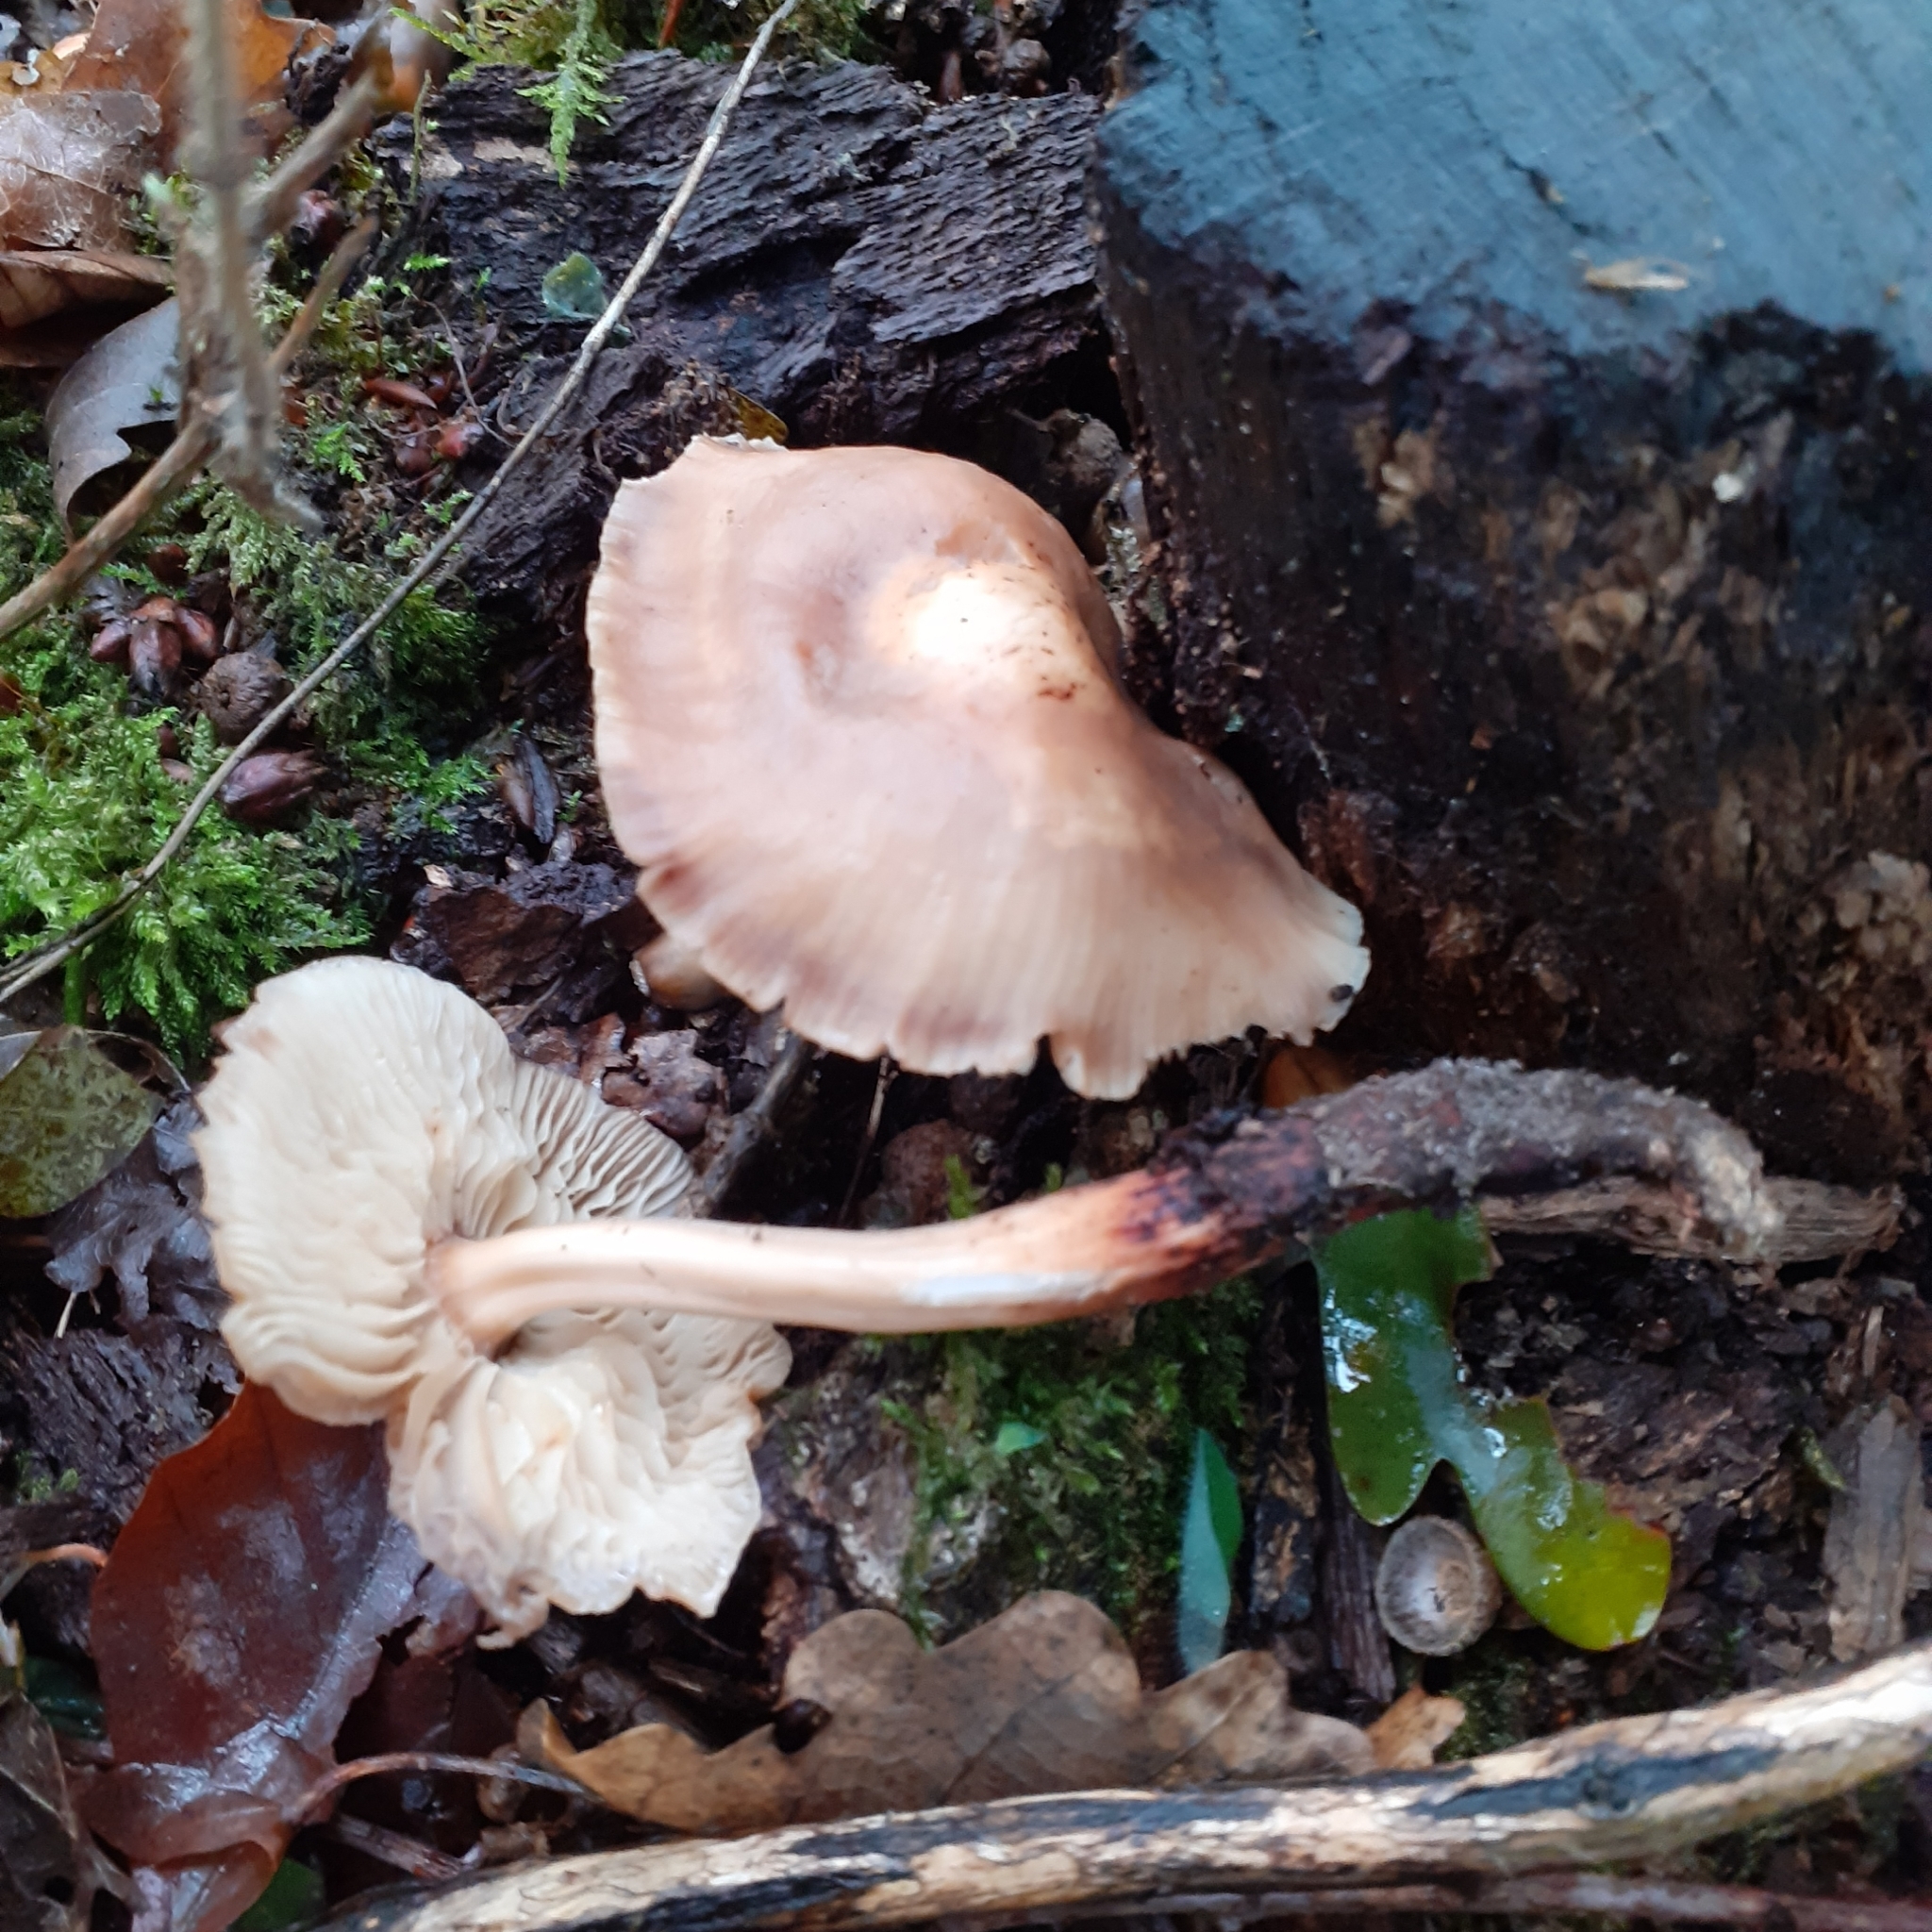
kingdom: Fungi
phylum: Basidiomycota
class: Agaricomycetes
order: Agaricales
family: Omphalotaceae
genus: Gymnopus
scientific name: Gymnopus fusipes
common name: Spindle shank
